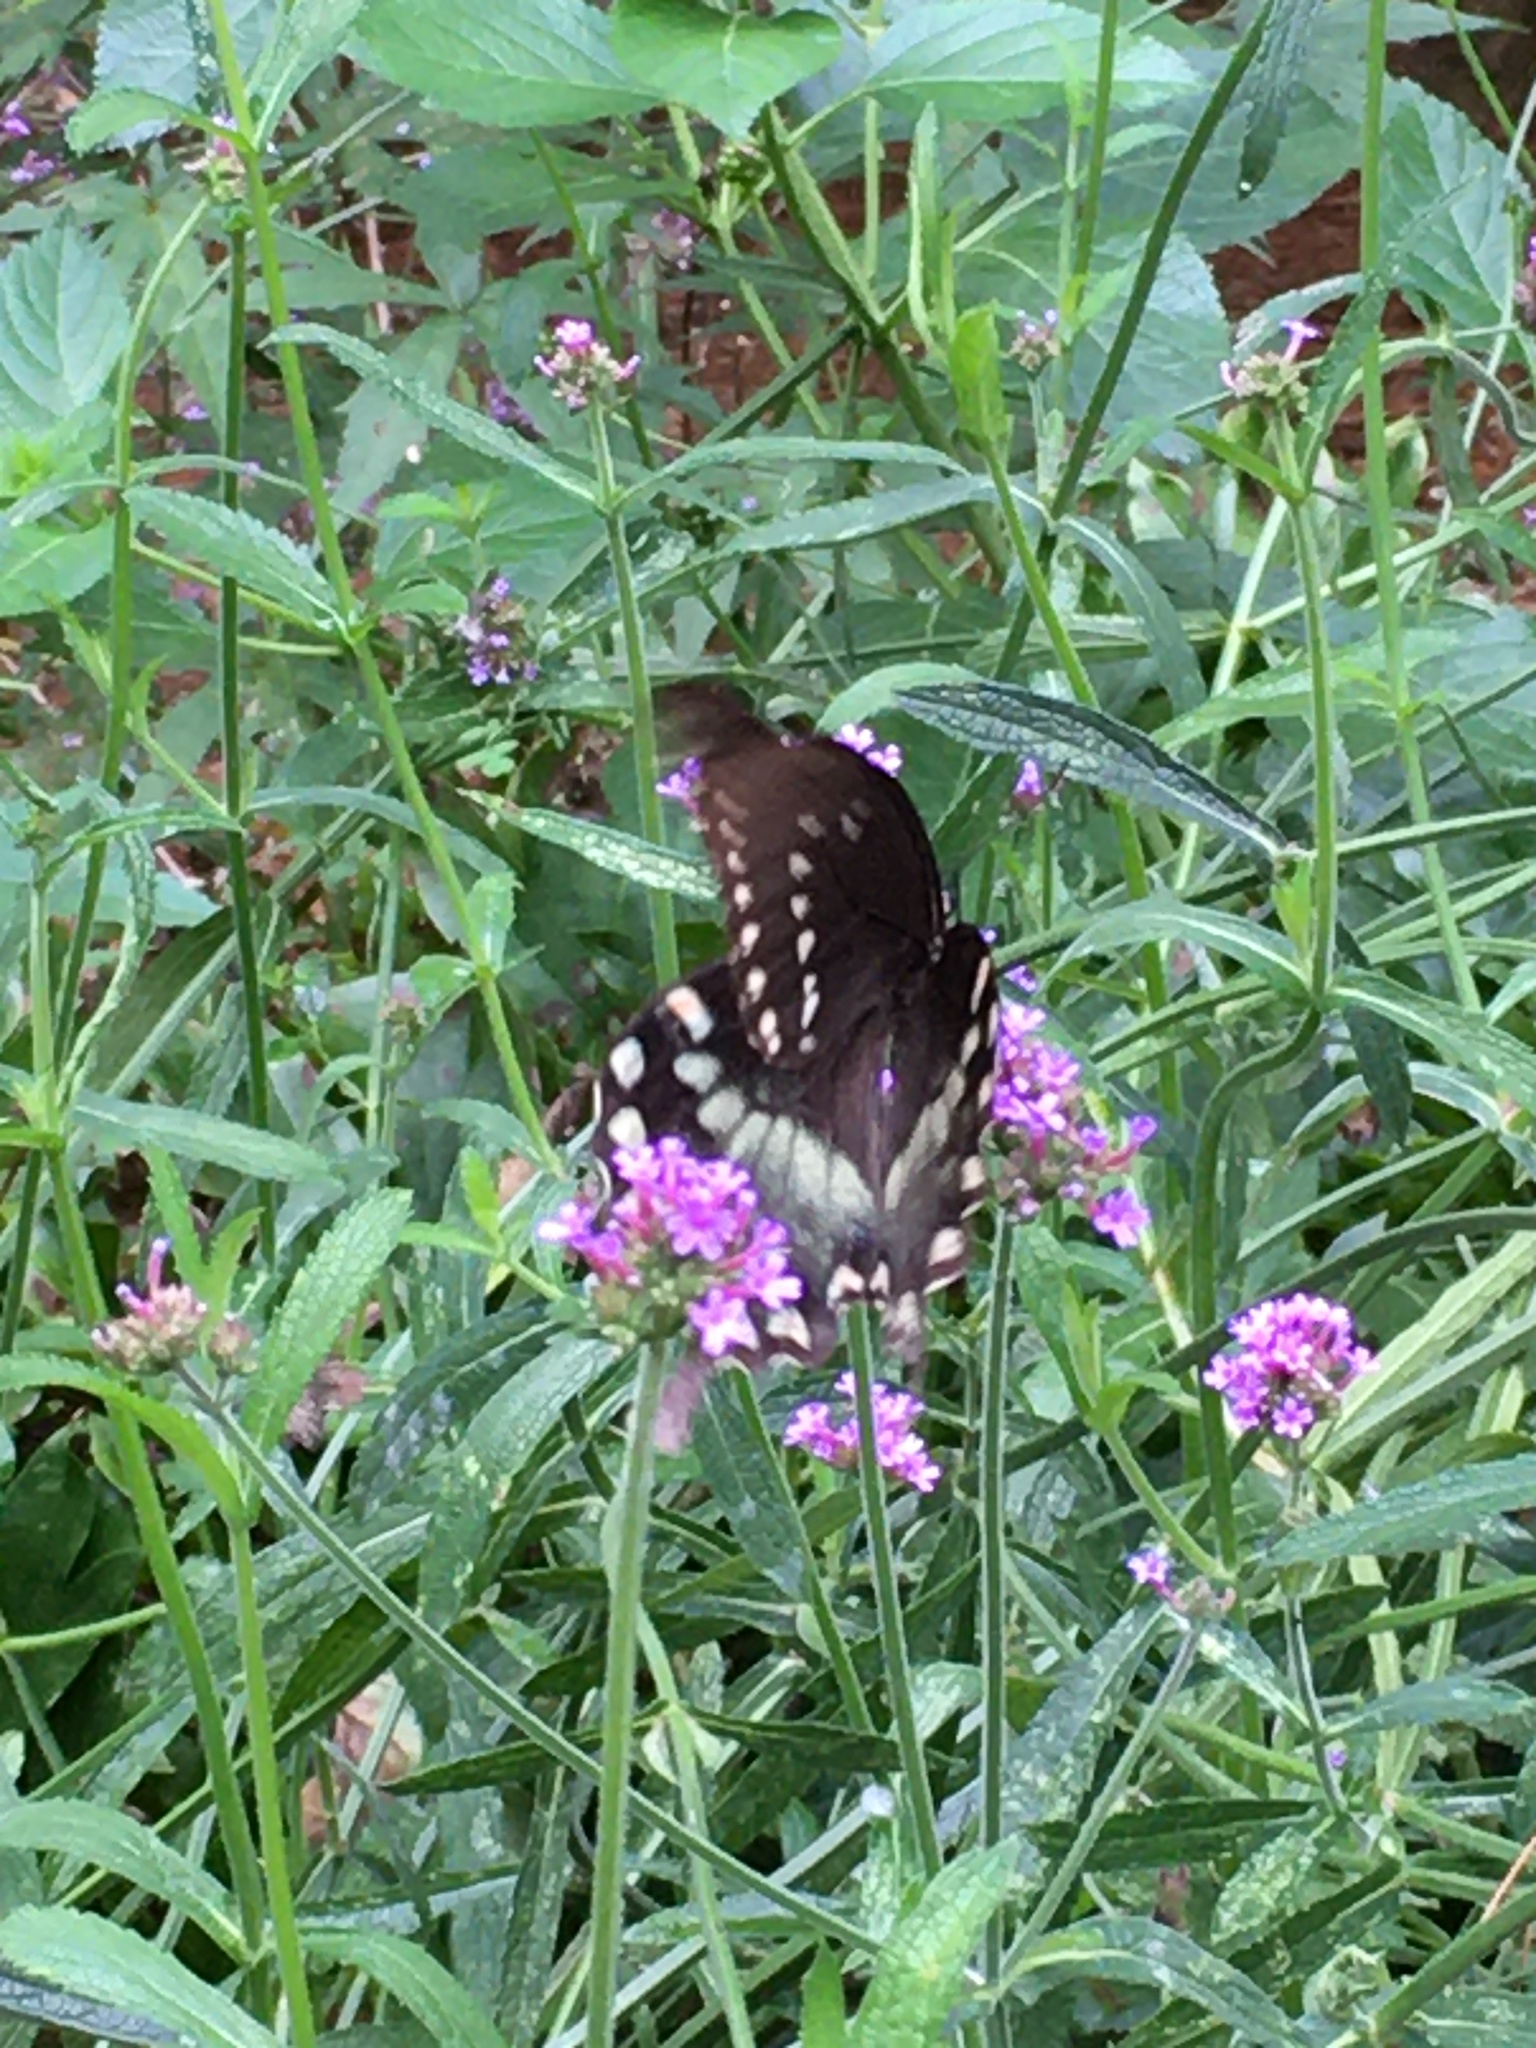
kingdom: Animalia
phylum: Arthropoda
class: Insecta
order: Lepidoptera
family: Papilionidae
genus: Papilio
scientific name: Papilio troilus
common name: Spicebush swallowtail
